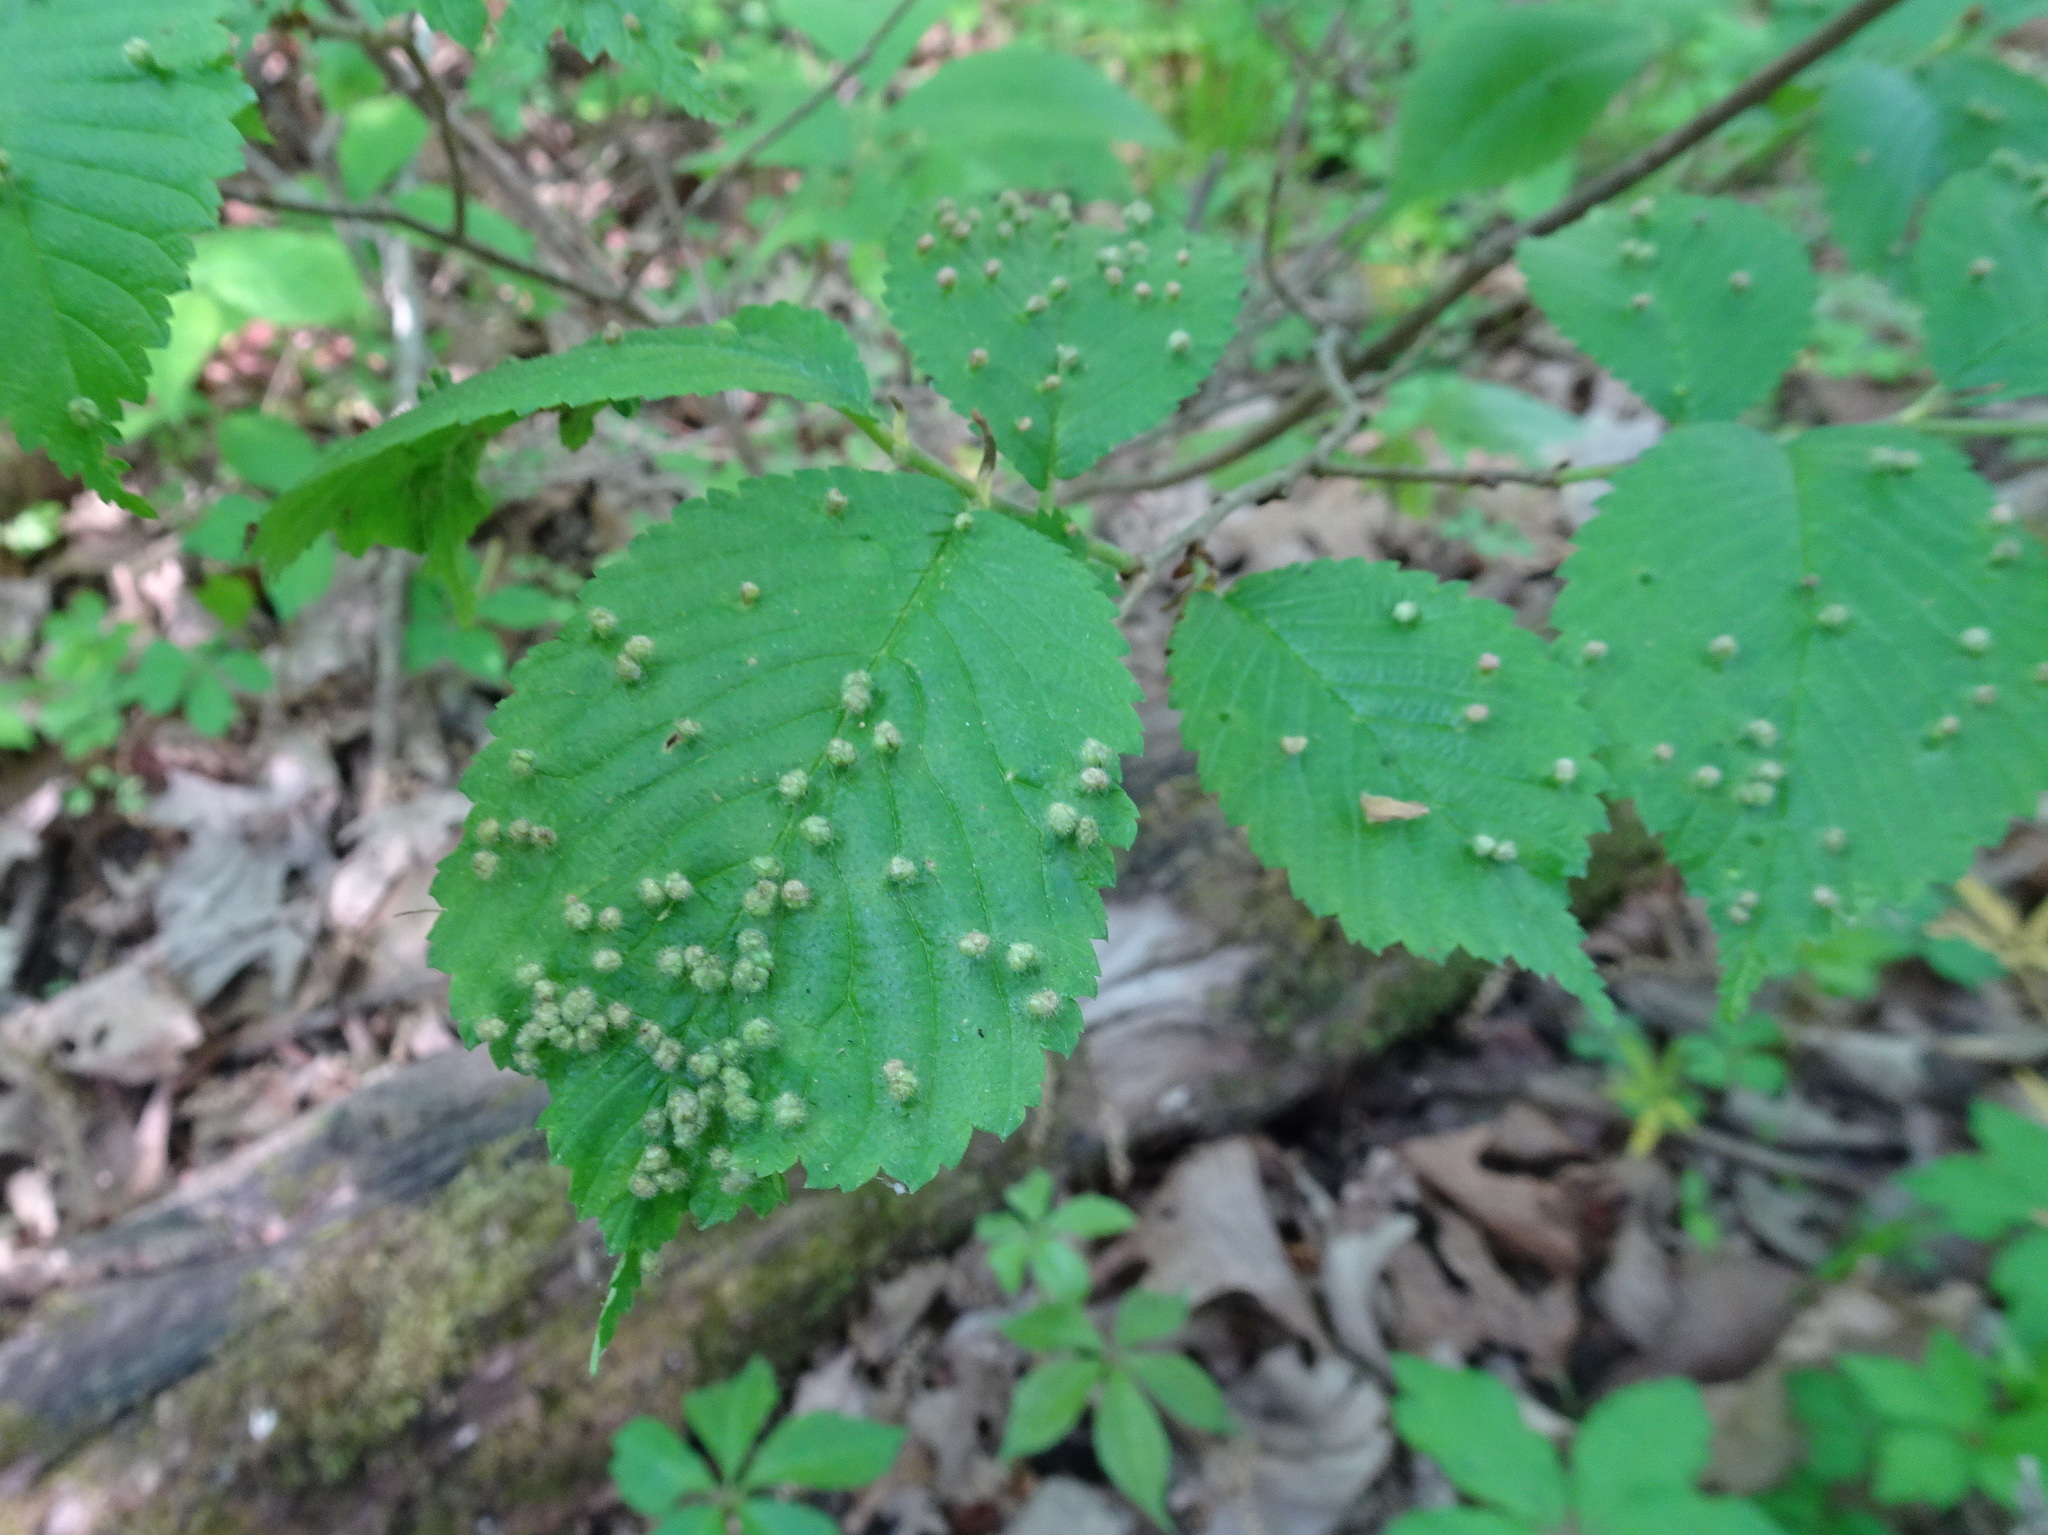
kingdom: Animalia
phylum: Arthropoda
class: Arachnida
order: Trombidiformes
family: Eriophyidae
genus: Aceria
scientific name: Aceria
